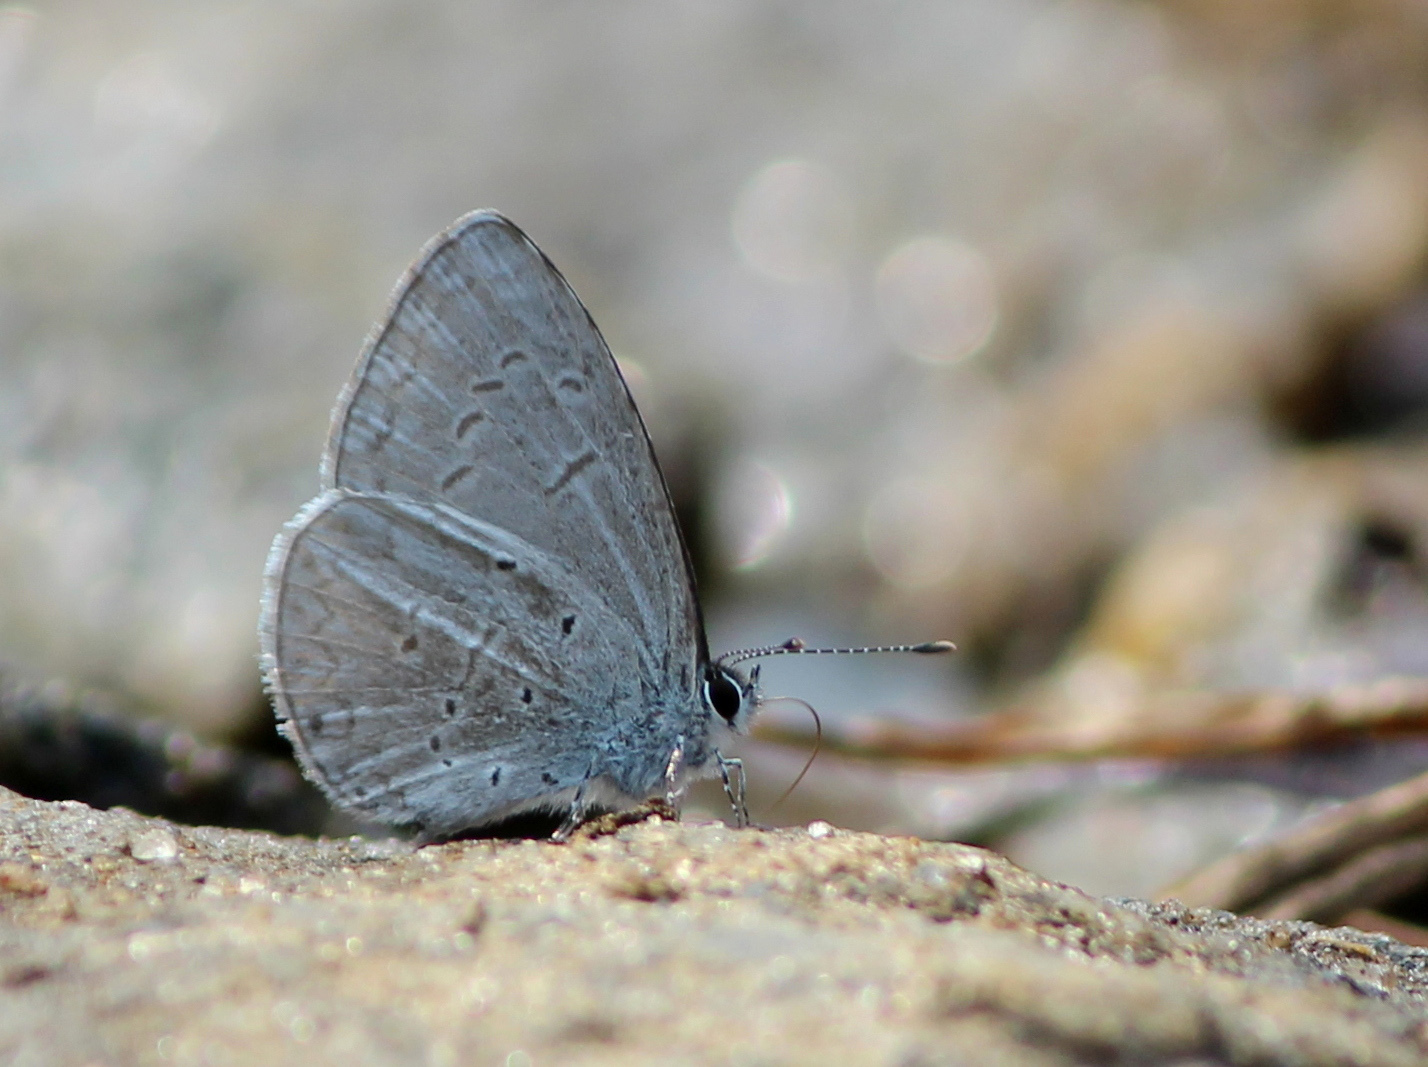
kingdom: Animalia
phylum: Arthropoda
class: Insecta
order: Lepidoptera
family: Lycaenidae
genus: Celastrina
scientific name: Celastrina lavendularis
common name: Plain hedge blue
